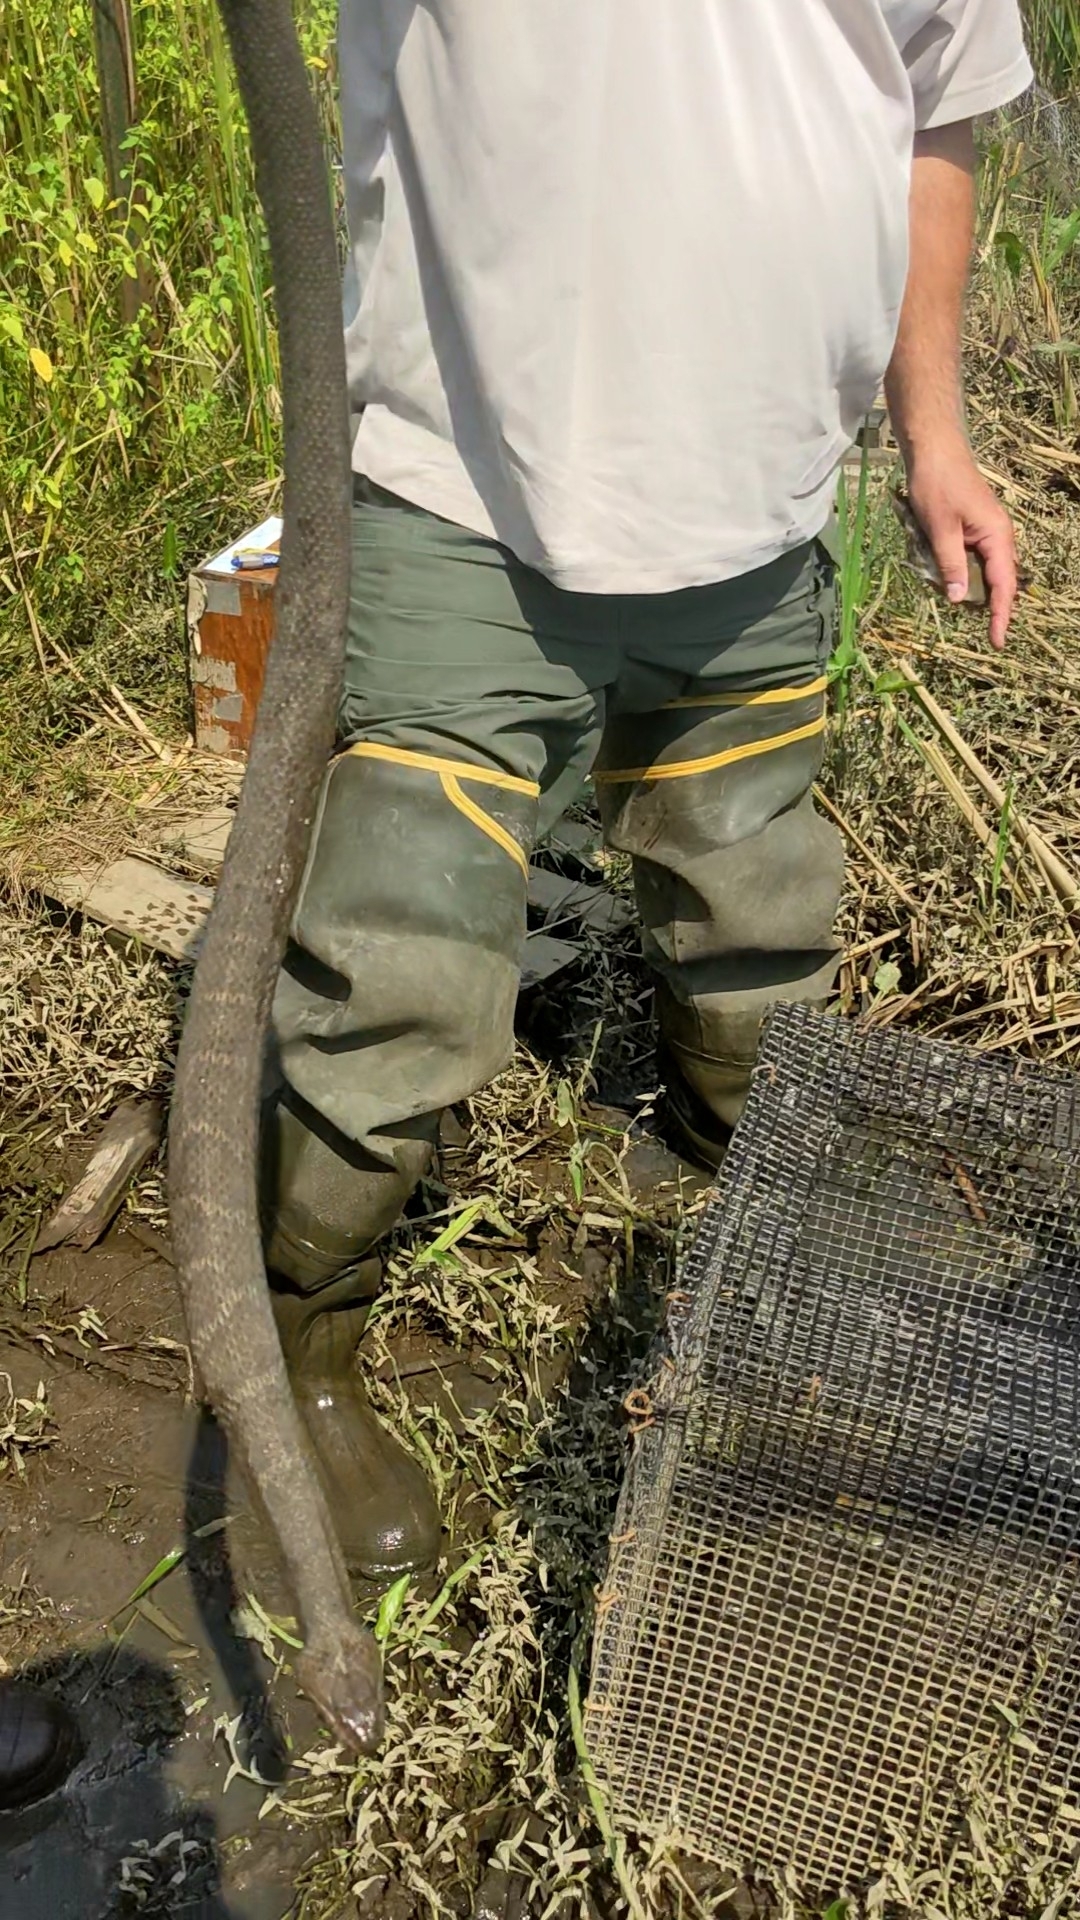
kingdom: Animalia
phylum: Chordata
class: Squamata
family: Colubridae
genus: Nerodia
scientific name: Nerodia sipedon
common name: Northern water snake
